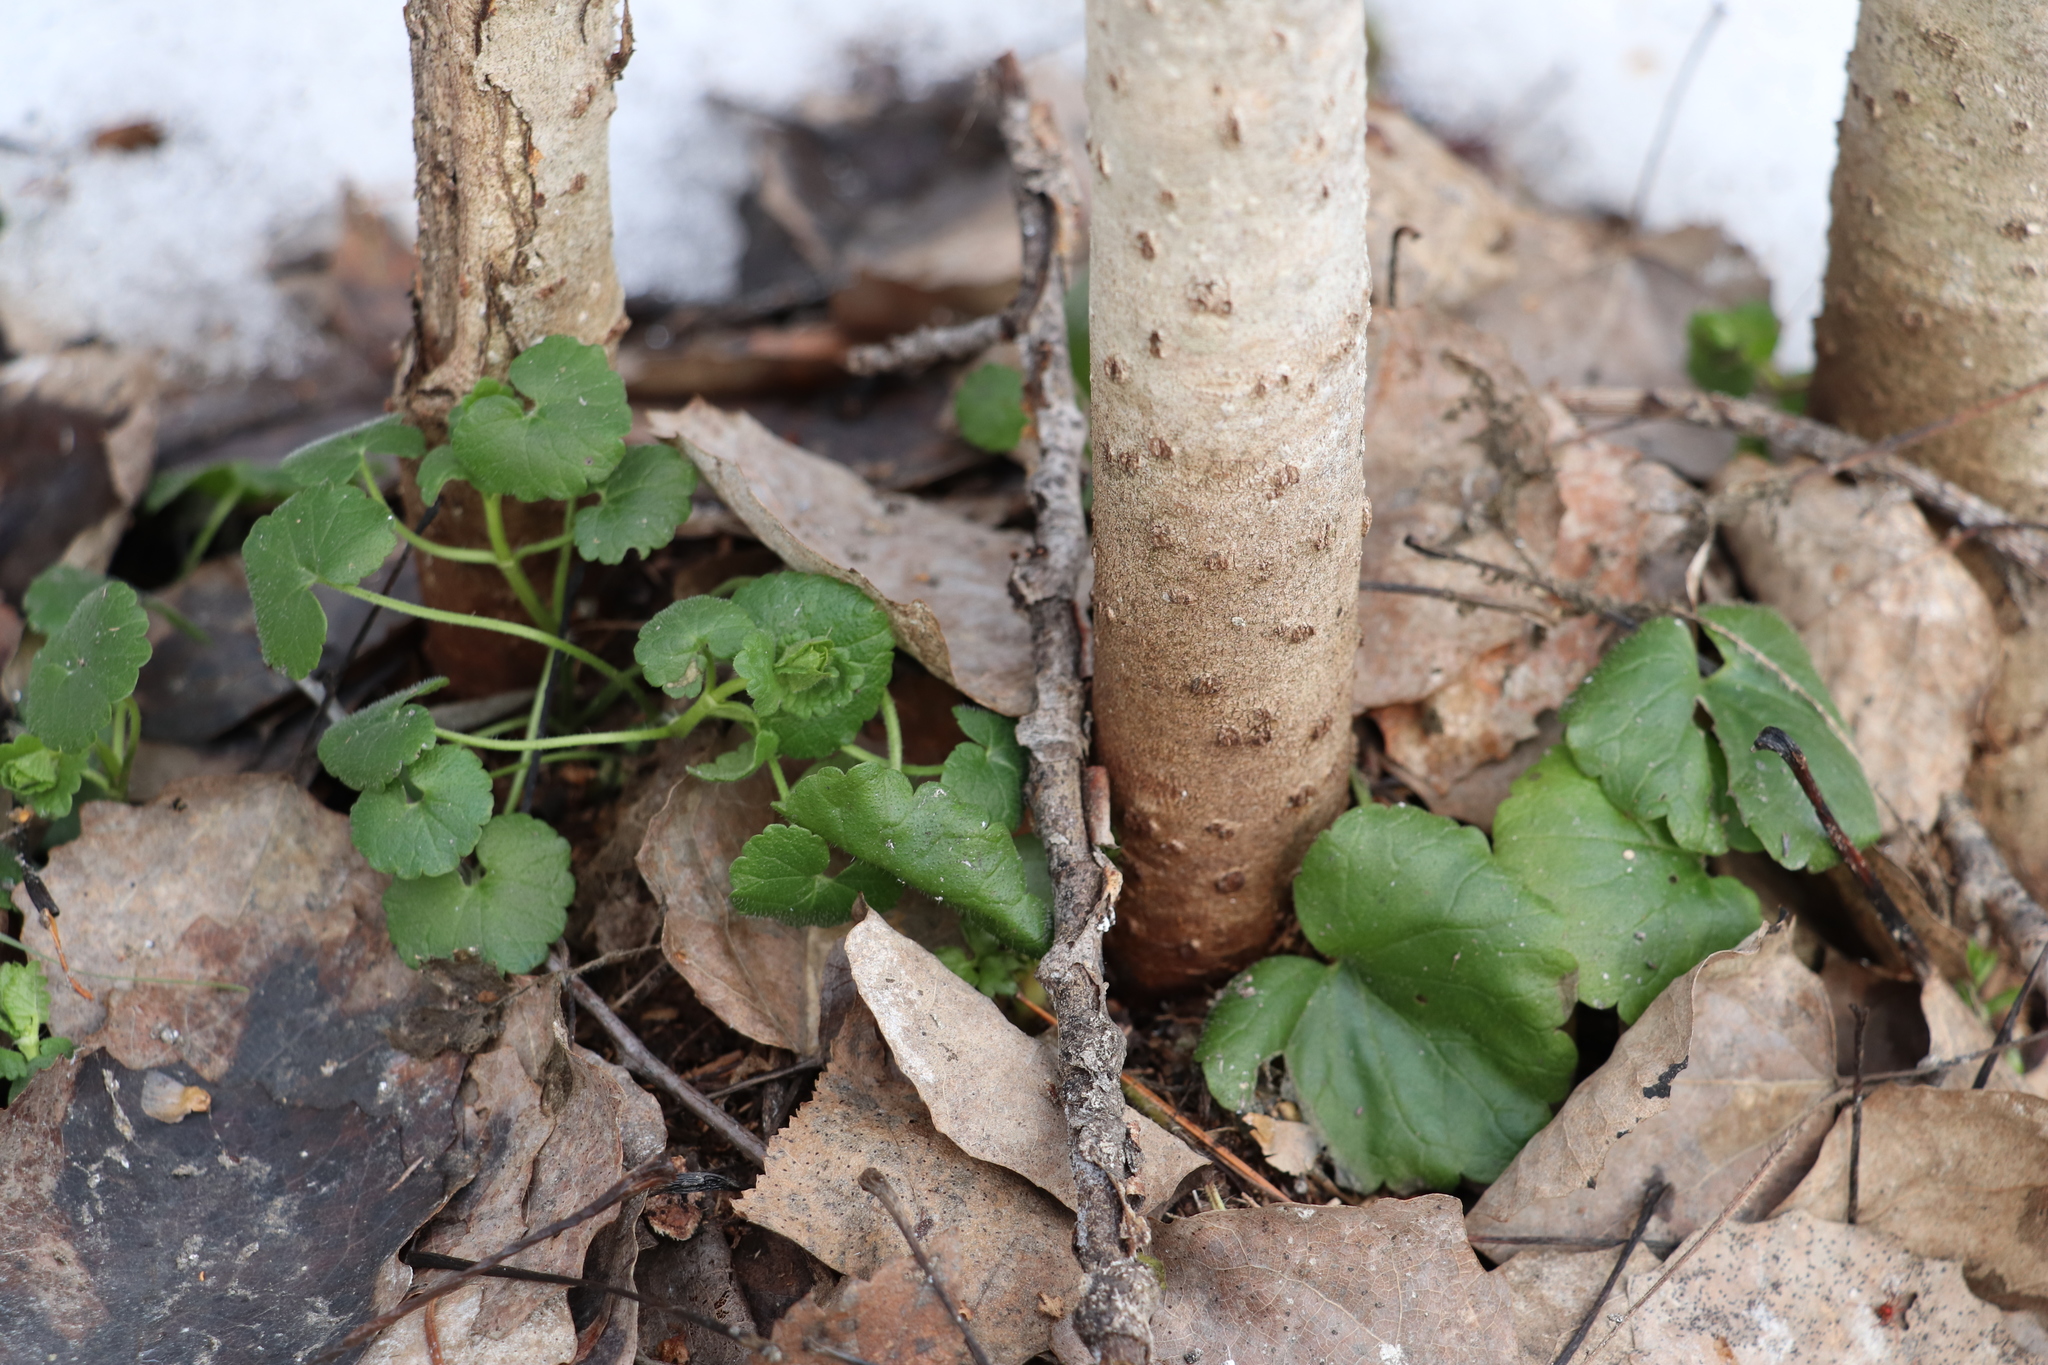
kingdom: Plantae
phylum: Tracheophyta
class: Magnoliopsida
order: Lamiales
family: Lamiaceae
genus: Glechoma
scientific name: Glechoma hederacea
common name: Ground ivy
